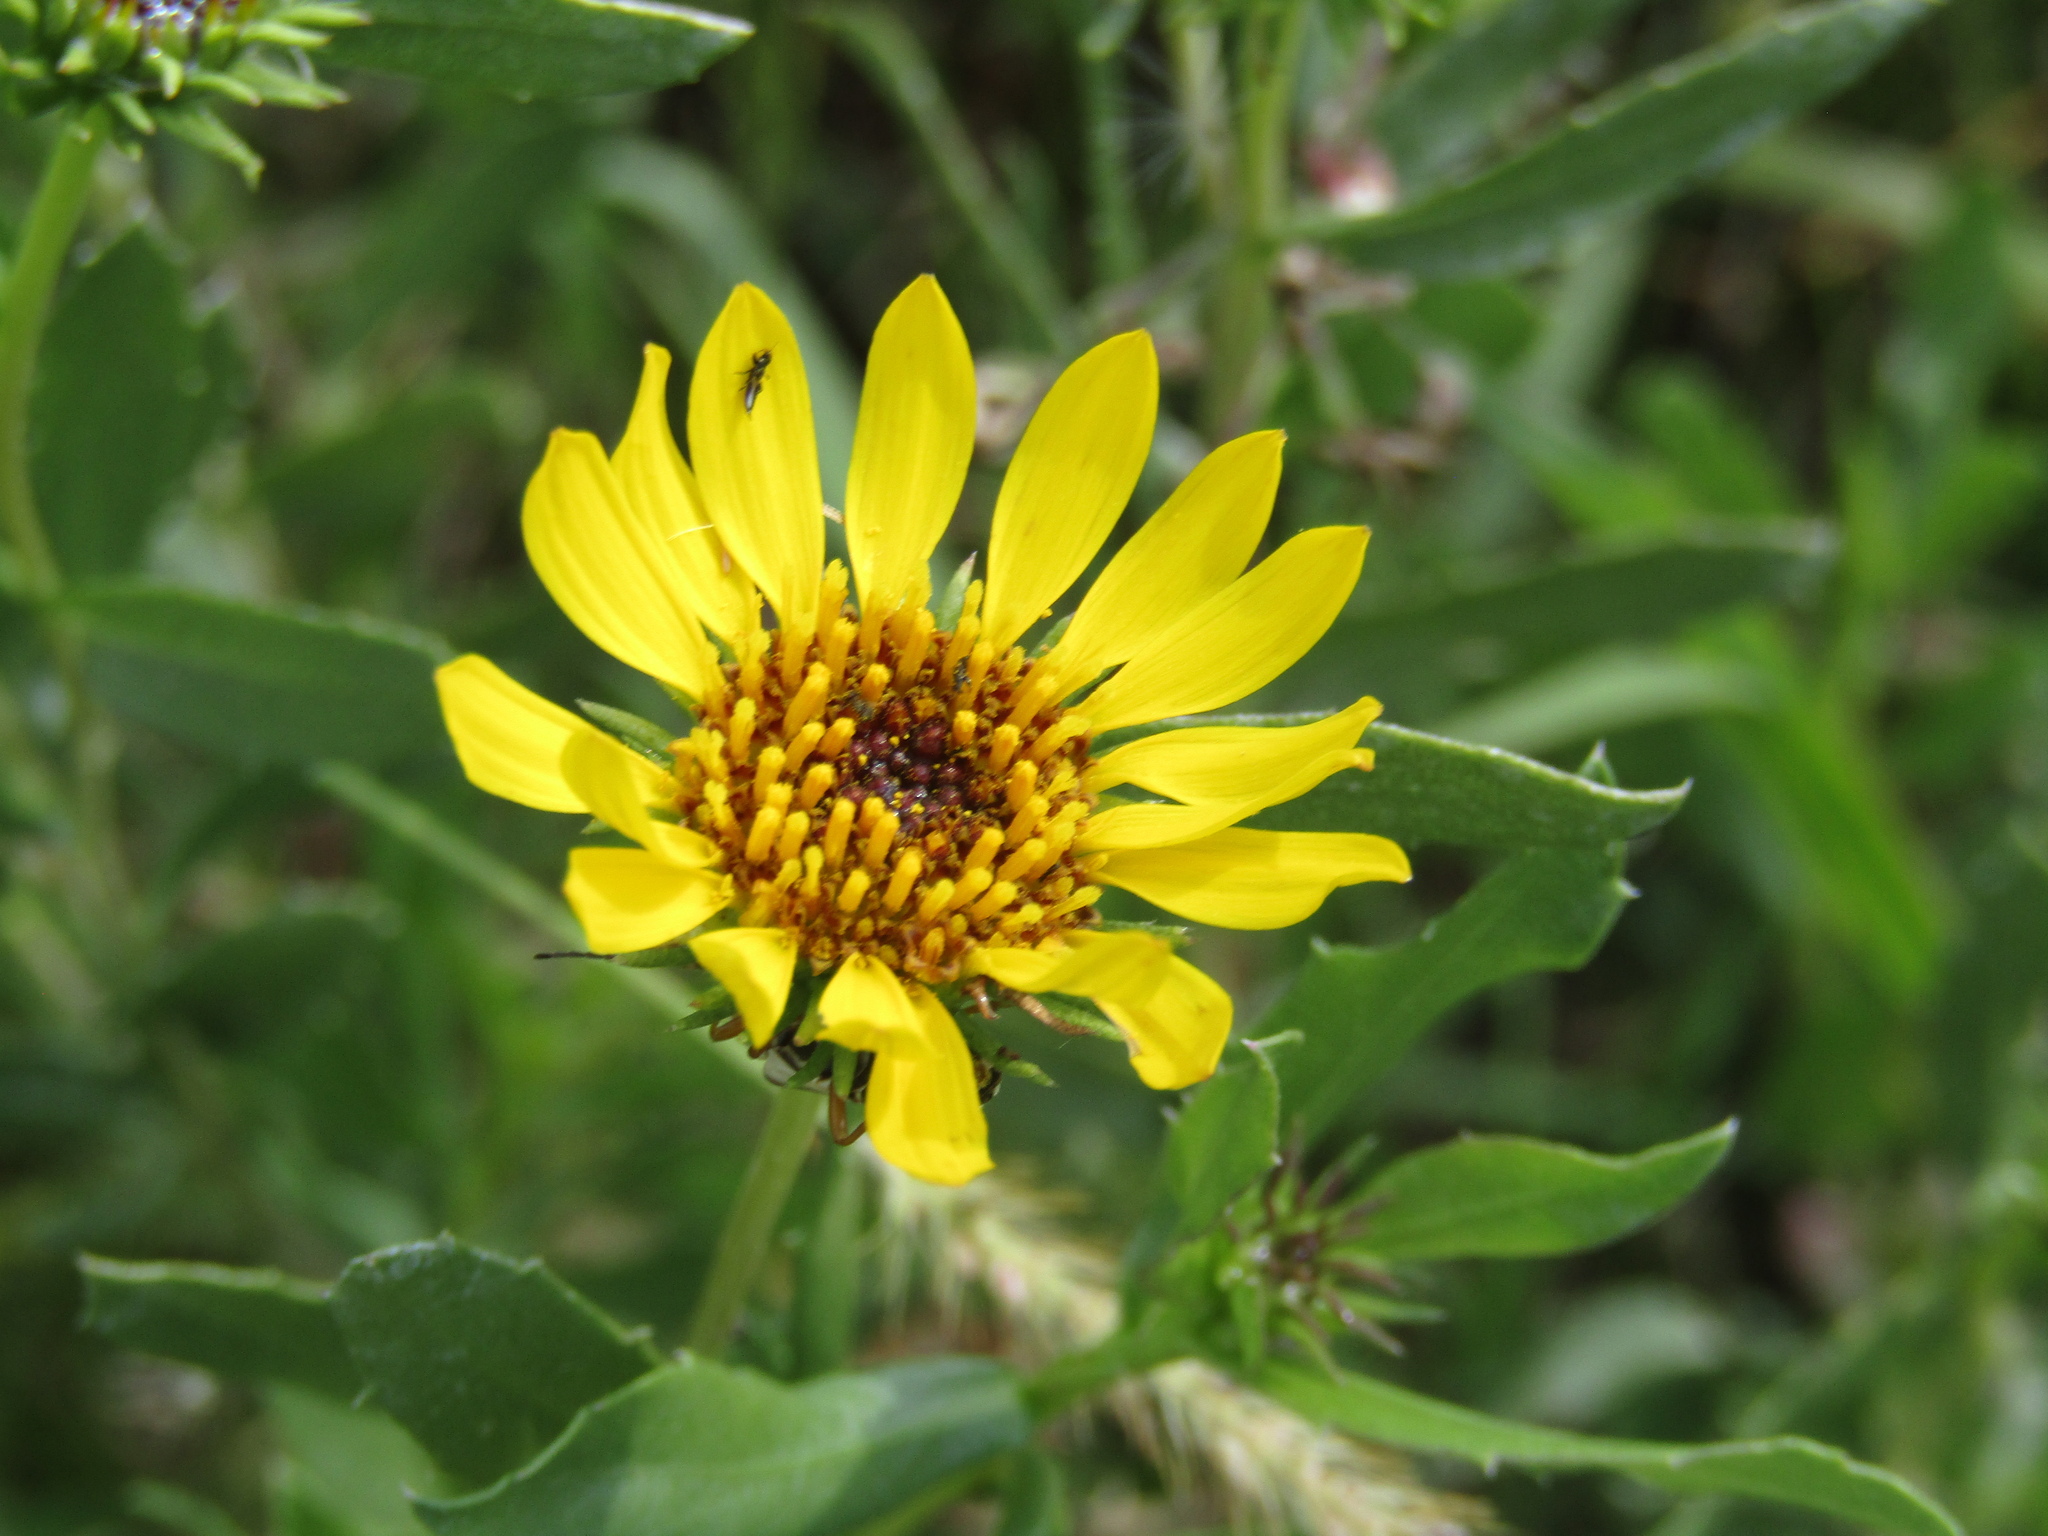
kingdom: Plantae
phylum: Tracheophyta
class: Magnoliopsida
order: Asterales
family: Asteraceae
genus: Grindelia
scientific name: Grindelia pulchella
